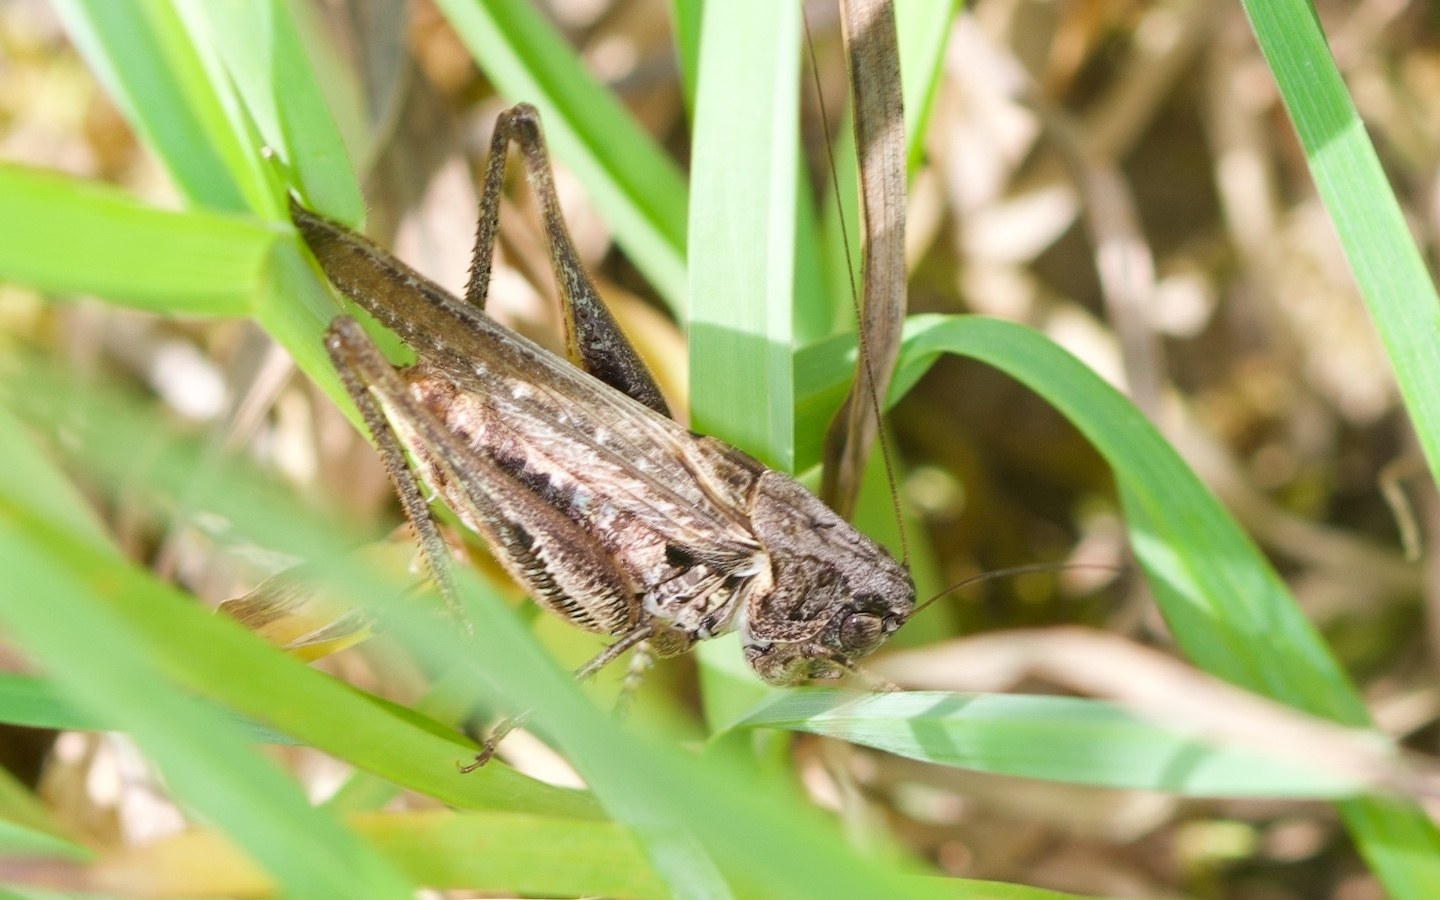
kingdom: Animalia
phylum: Arthropoda
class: Insecta
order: Orthoptera
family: Tettigoniidae
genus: Platycleis
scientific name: Platycleis albopunctata
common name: Grey bush-cricket
